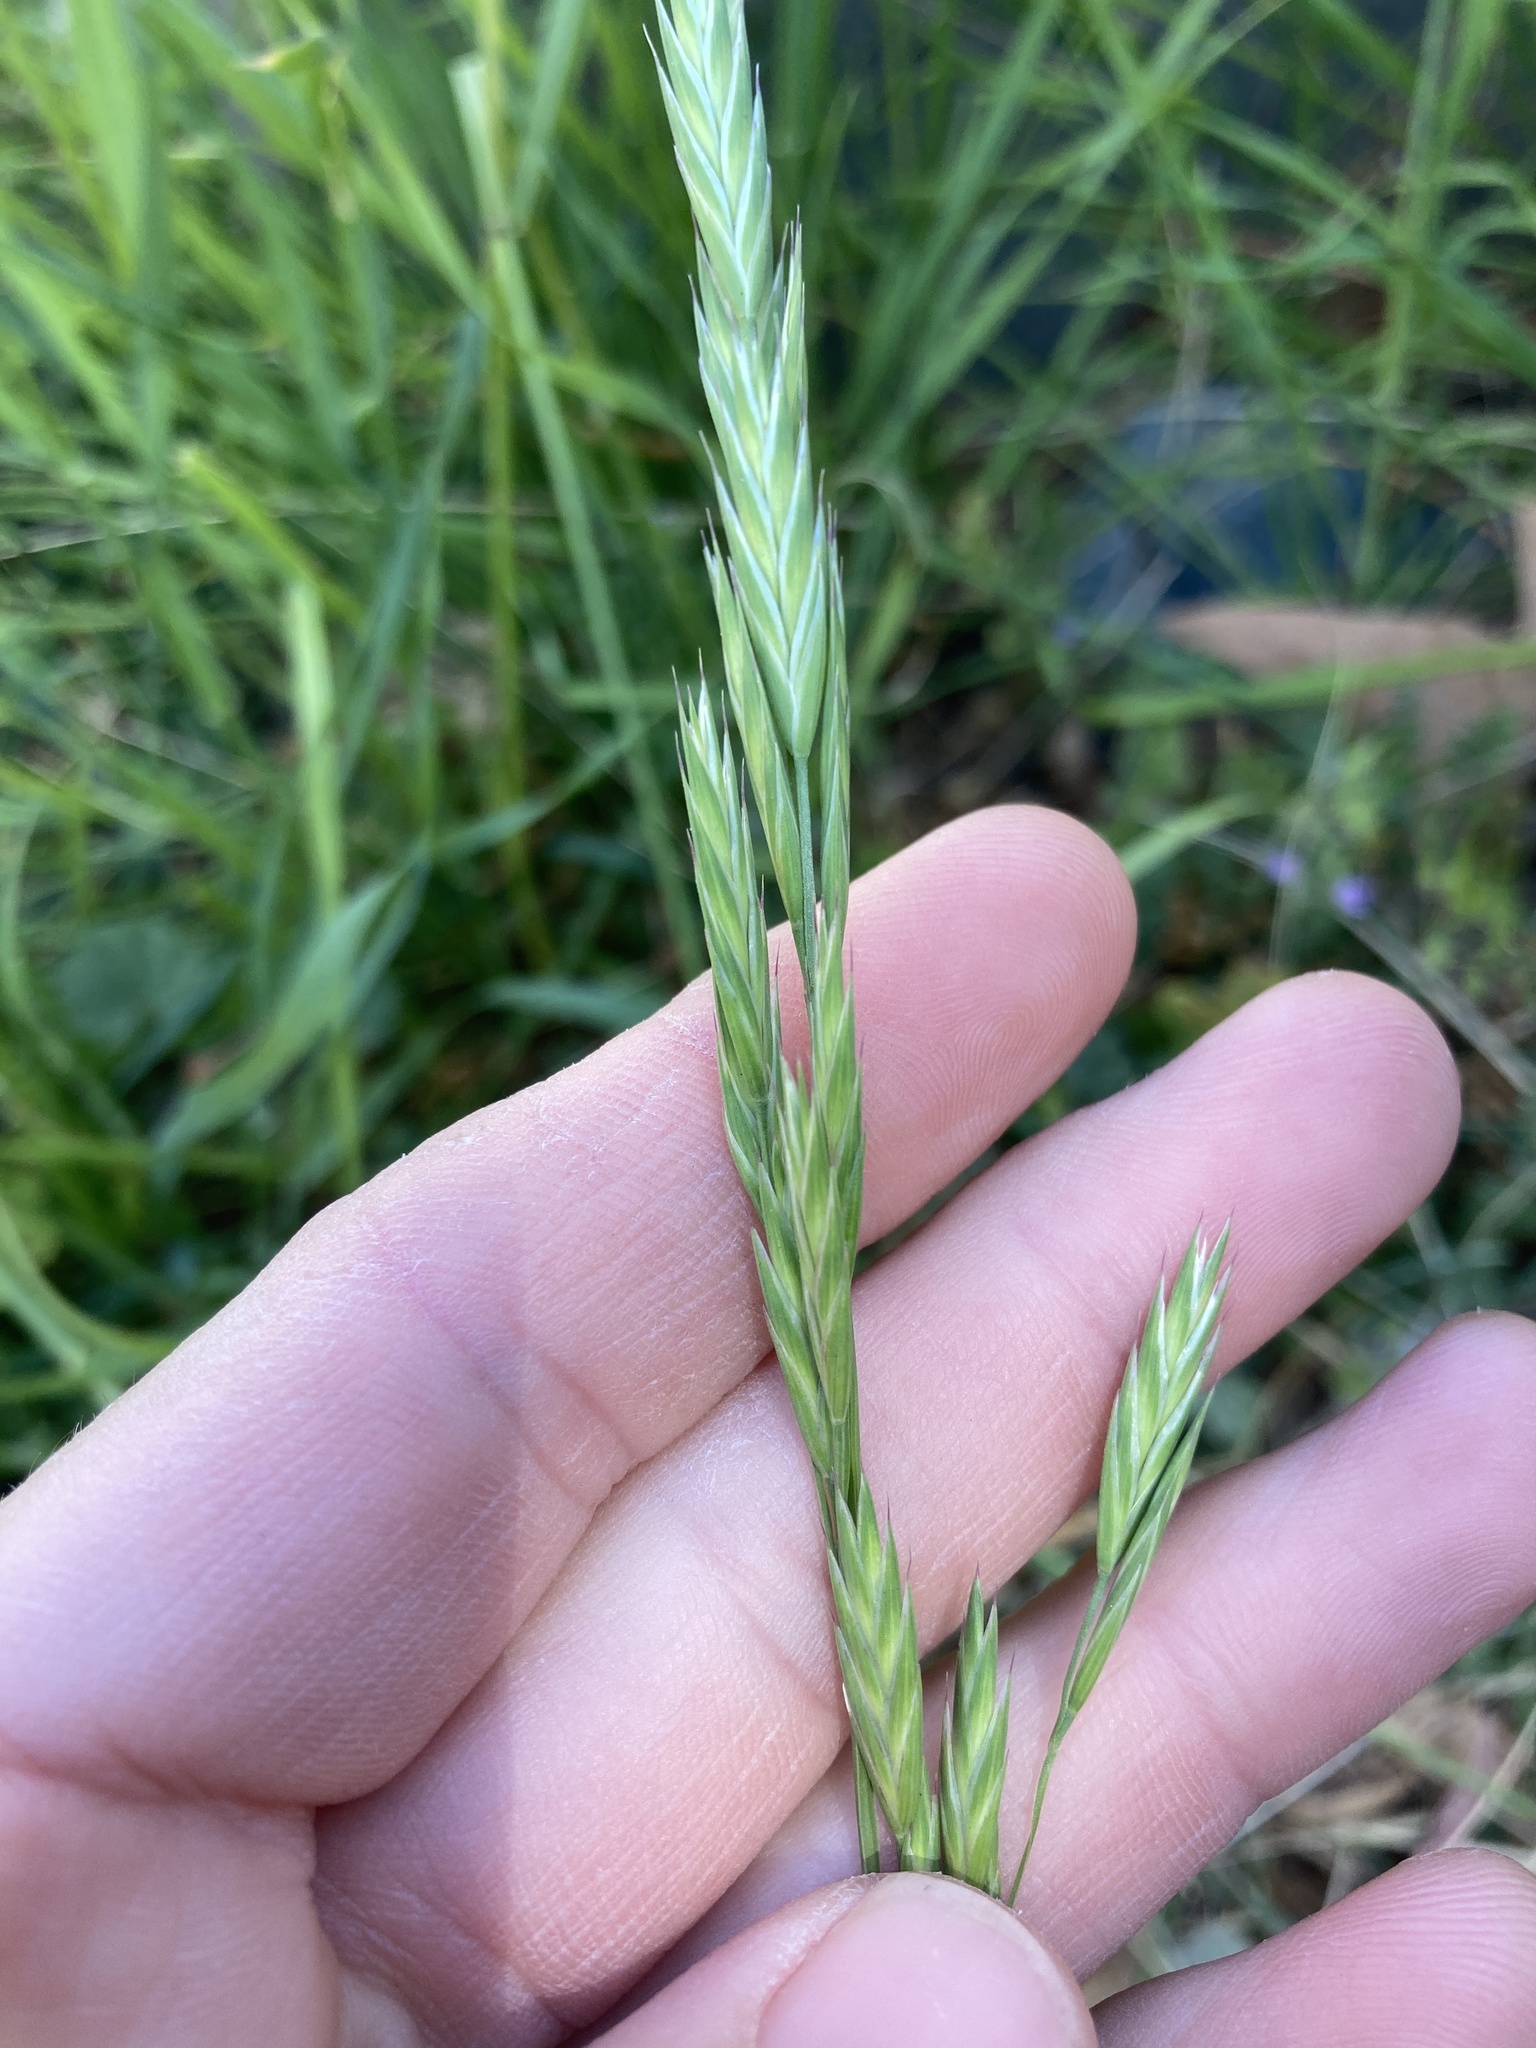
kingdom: Plantae
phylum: Tracheophyta
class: Liliopsida
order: Poales
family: Poaceae
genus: Bromus
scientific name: Bromus catharticus
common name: Rescuegrass
